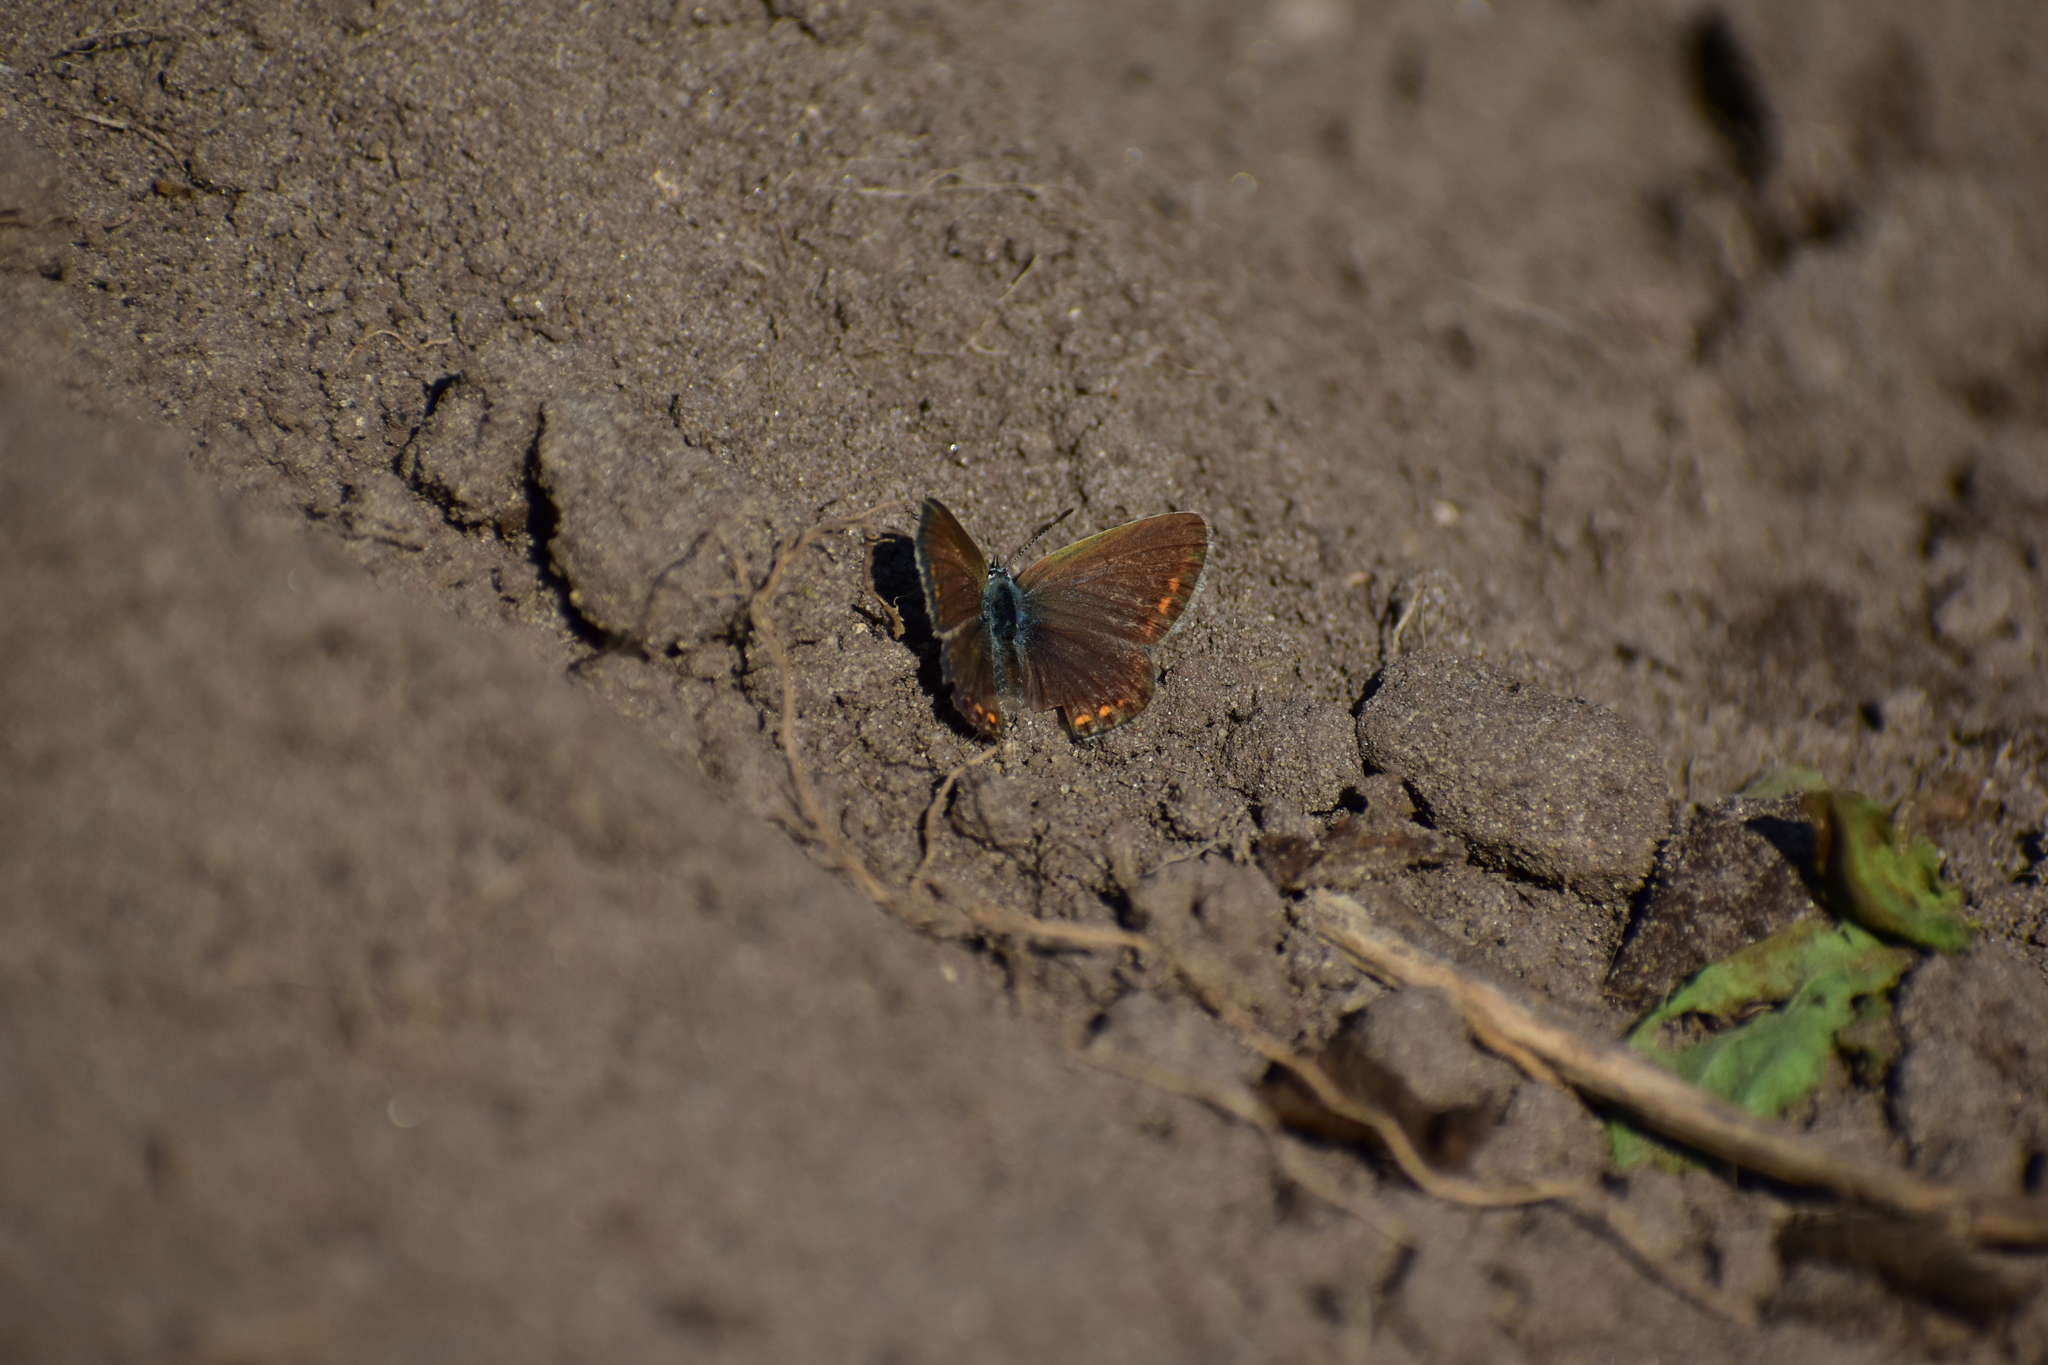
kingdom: Animalia
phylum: Arthropoda
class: Insecta
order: Lepidoptera
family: Lycaenidae
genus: Polyommatus
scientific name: Polyommatus icarus
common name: Common blue
